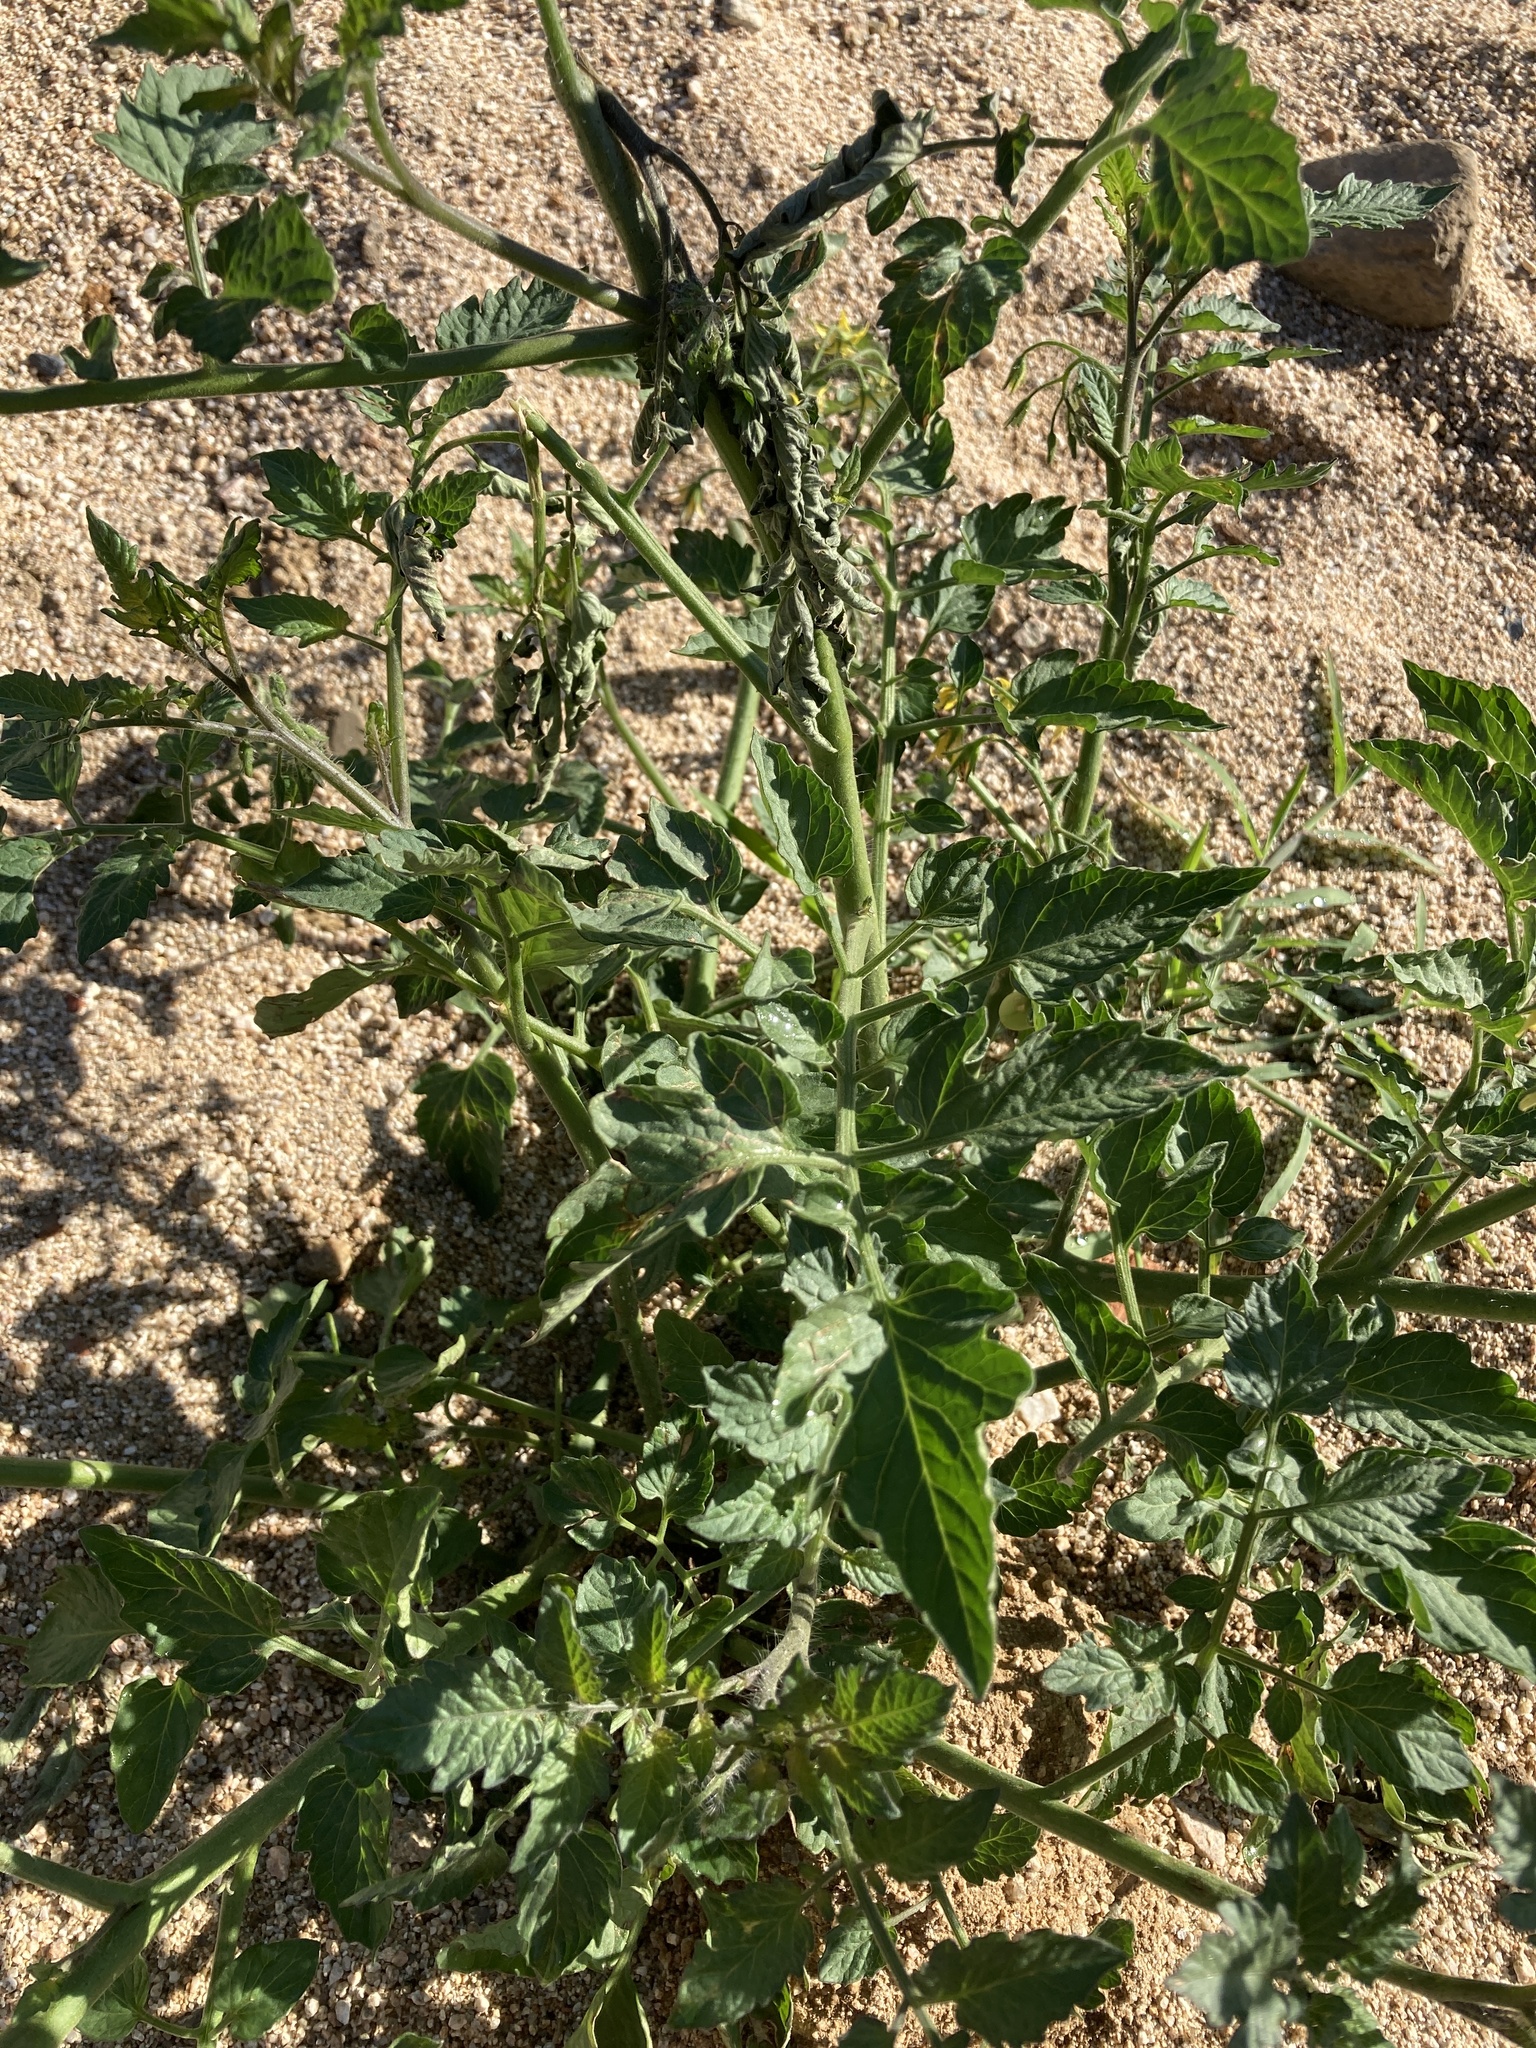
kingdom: Plantae
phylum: Tracheophyta
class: Magnoliopsida
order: Solanales
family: Solanaceae
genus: Solanum
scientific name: Solanum lycopersicum
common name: Garden tomato
